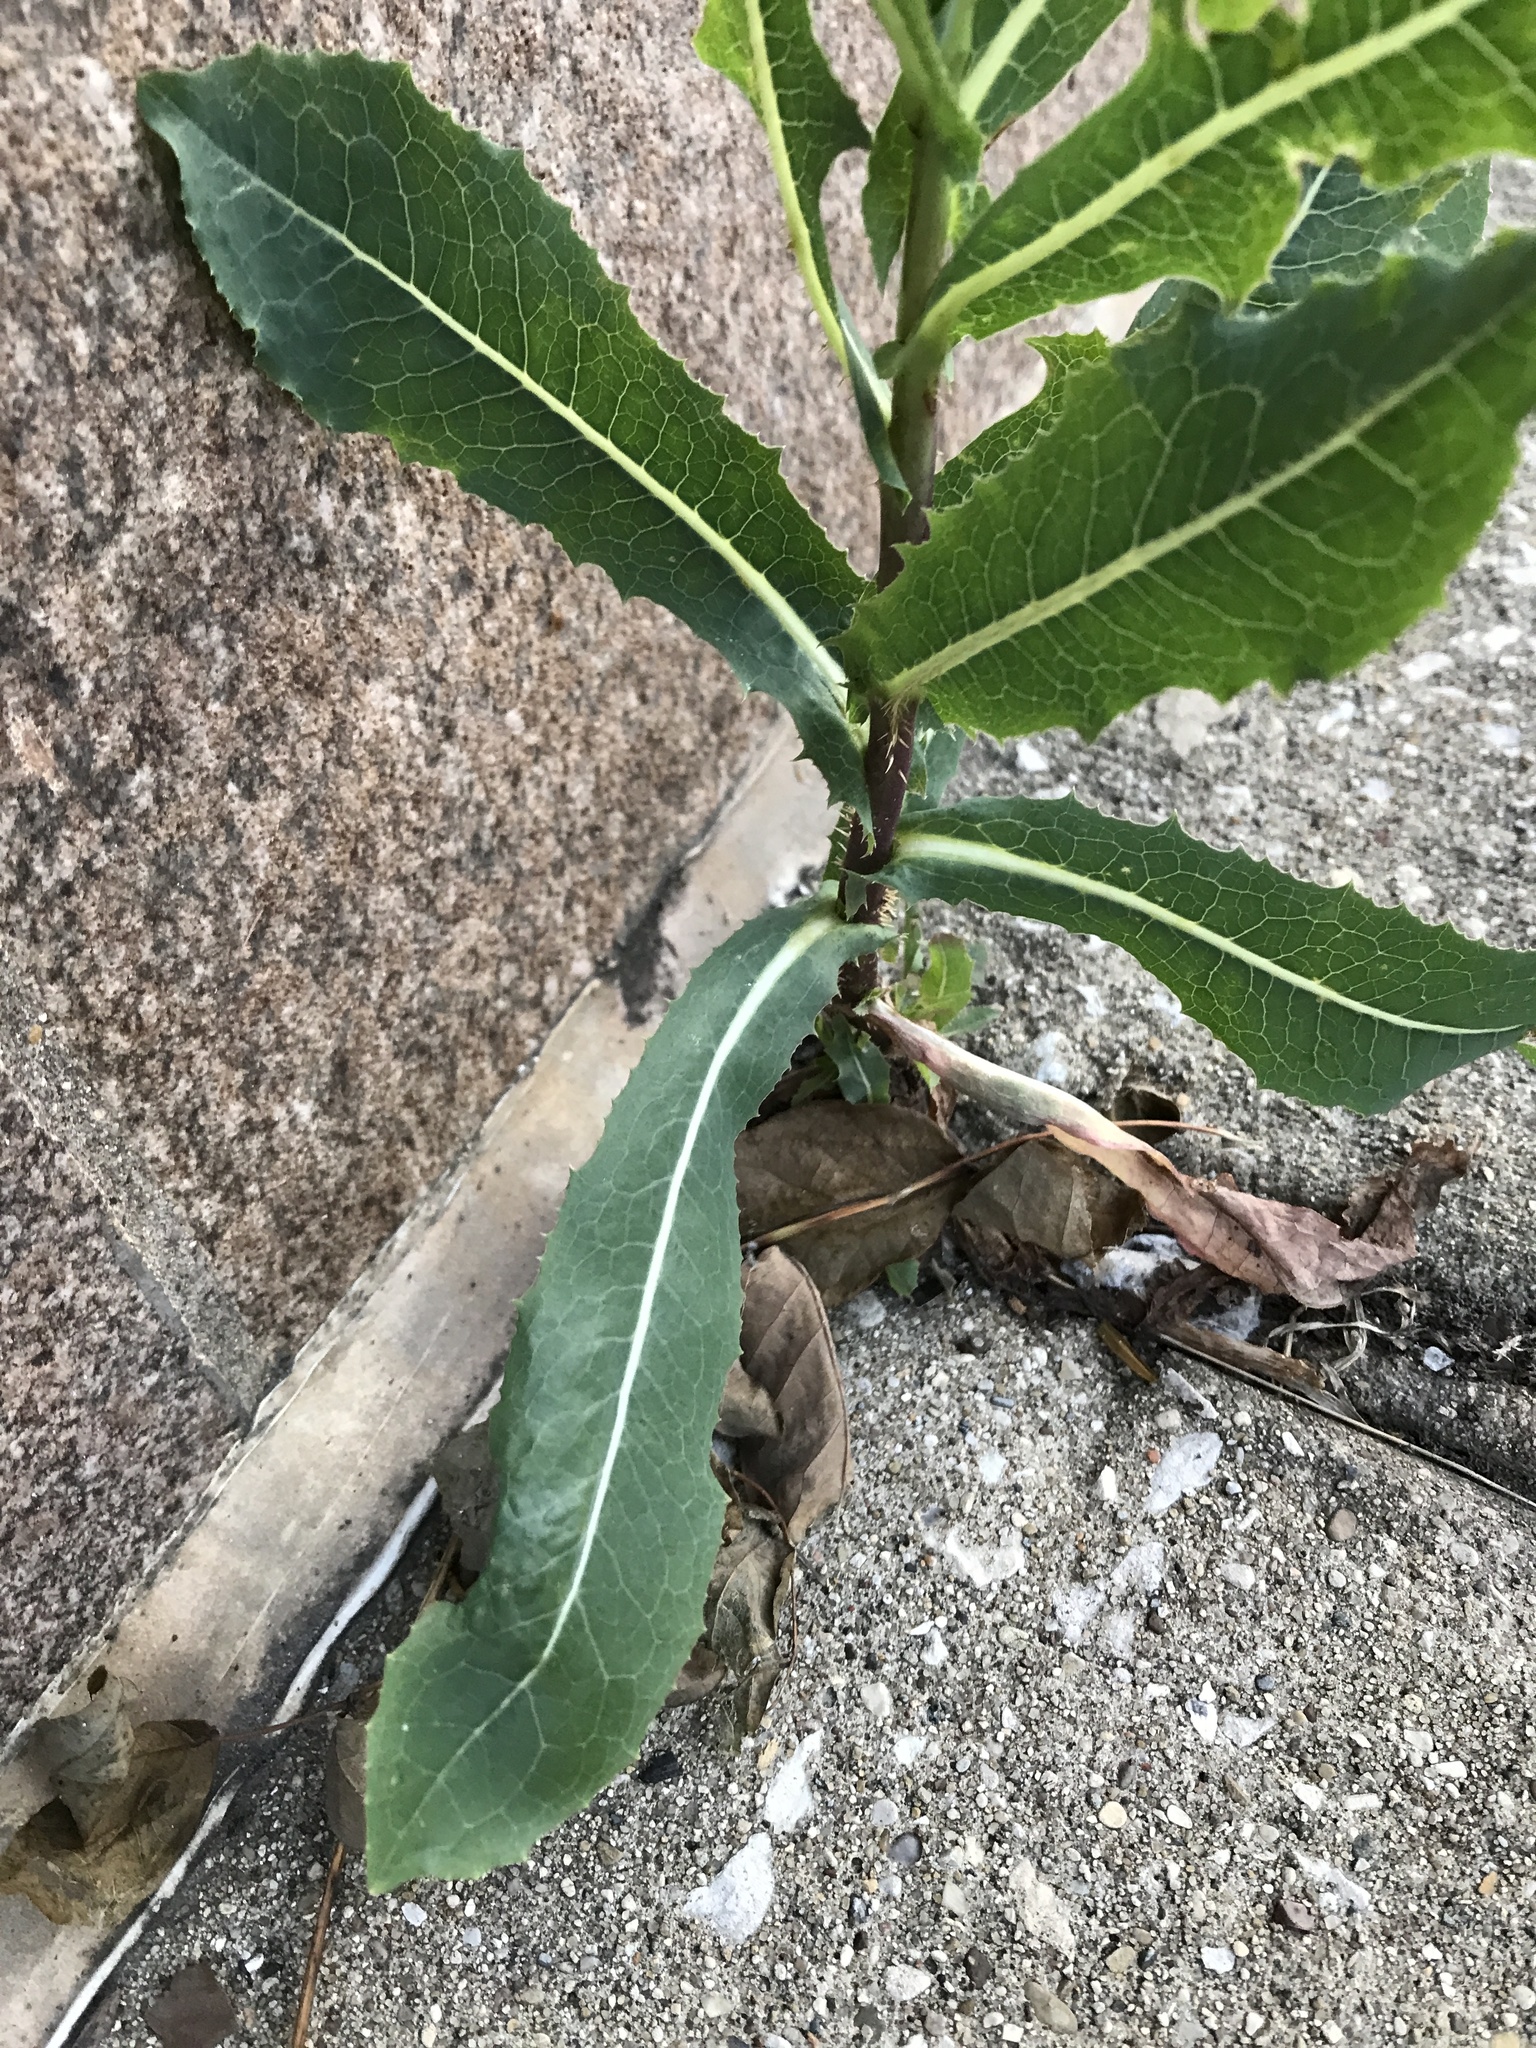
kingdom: Plantae
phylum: Tracheophyta
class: Magnoliopsida
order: Asterales
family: Asteraceae
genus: Lactuca
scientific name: Lactuca serriola
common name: Prickly lettuce
